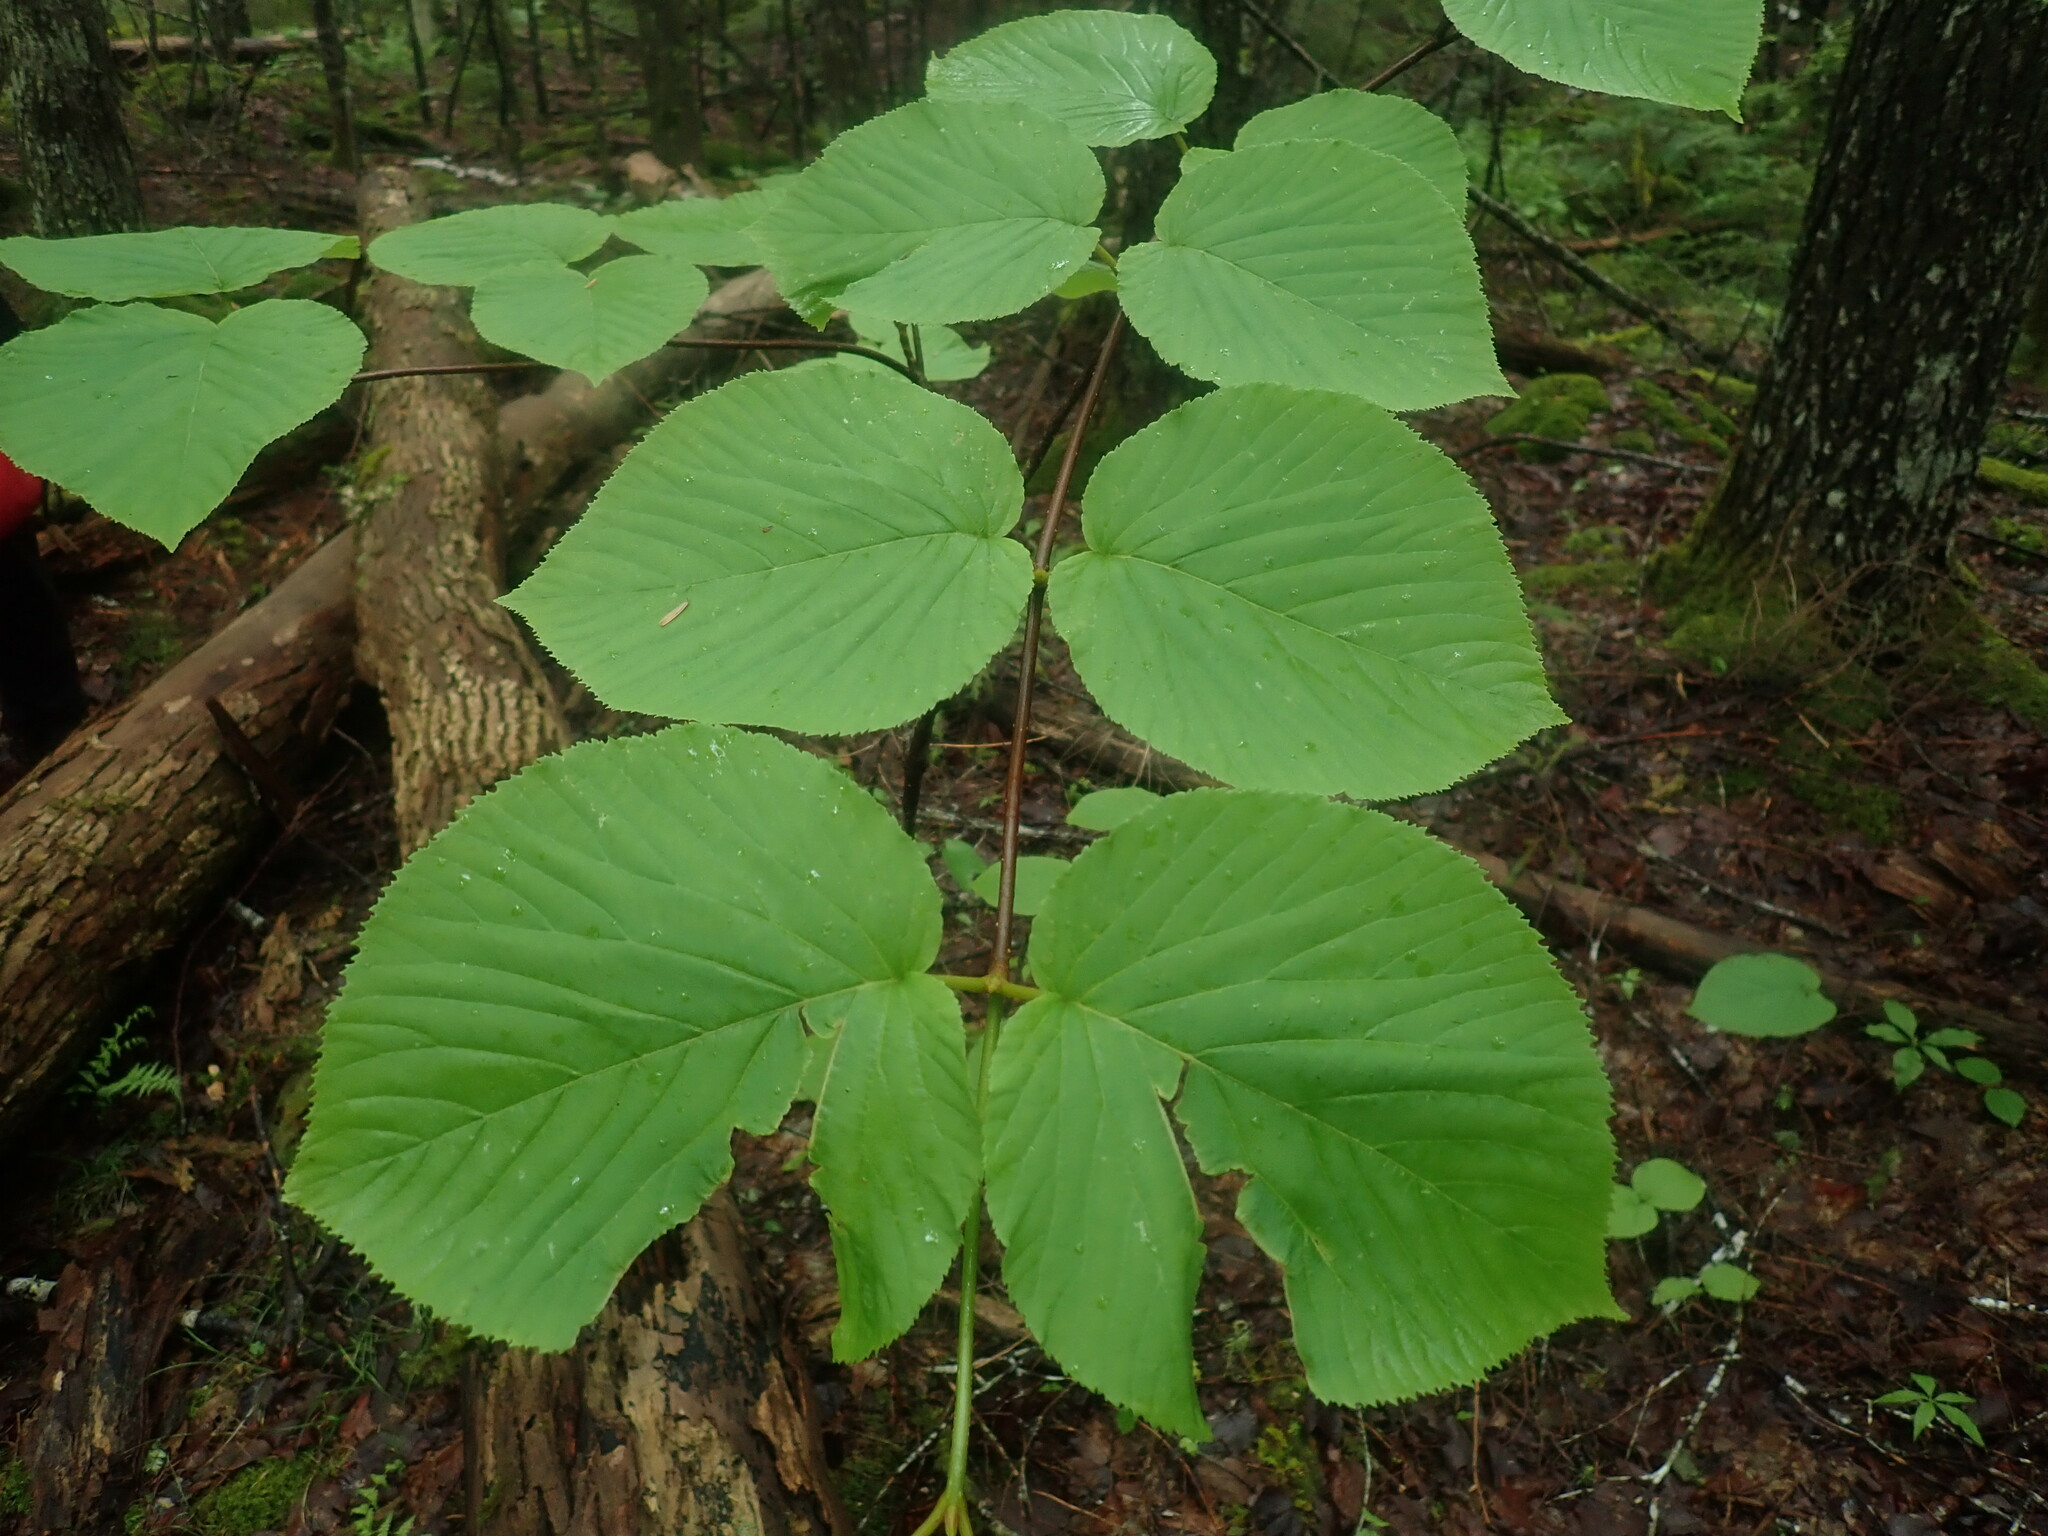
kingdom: Plantae
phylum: Tracheophyta
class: Magnoliopsida
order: Dipsacales
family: Viburnaceae
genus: Viburnum
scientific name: Viburnum lantanoides
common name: Hobblebush
